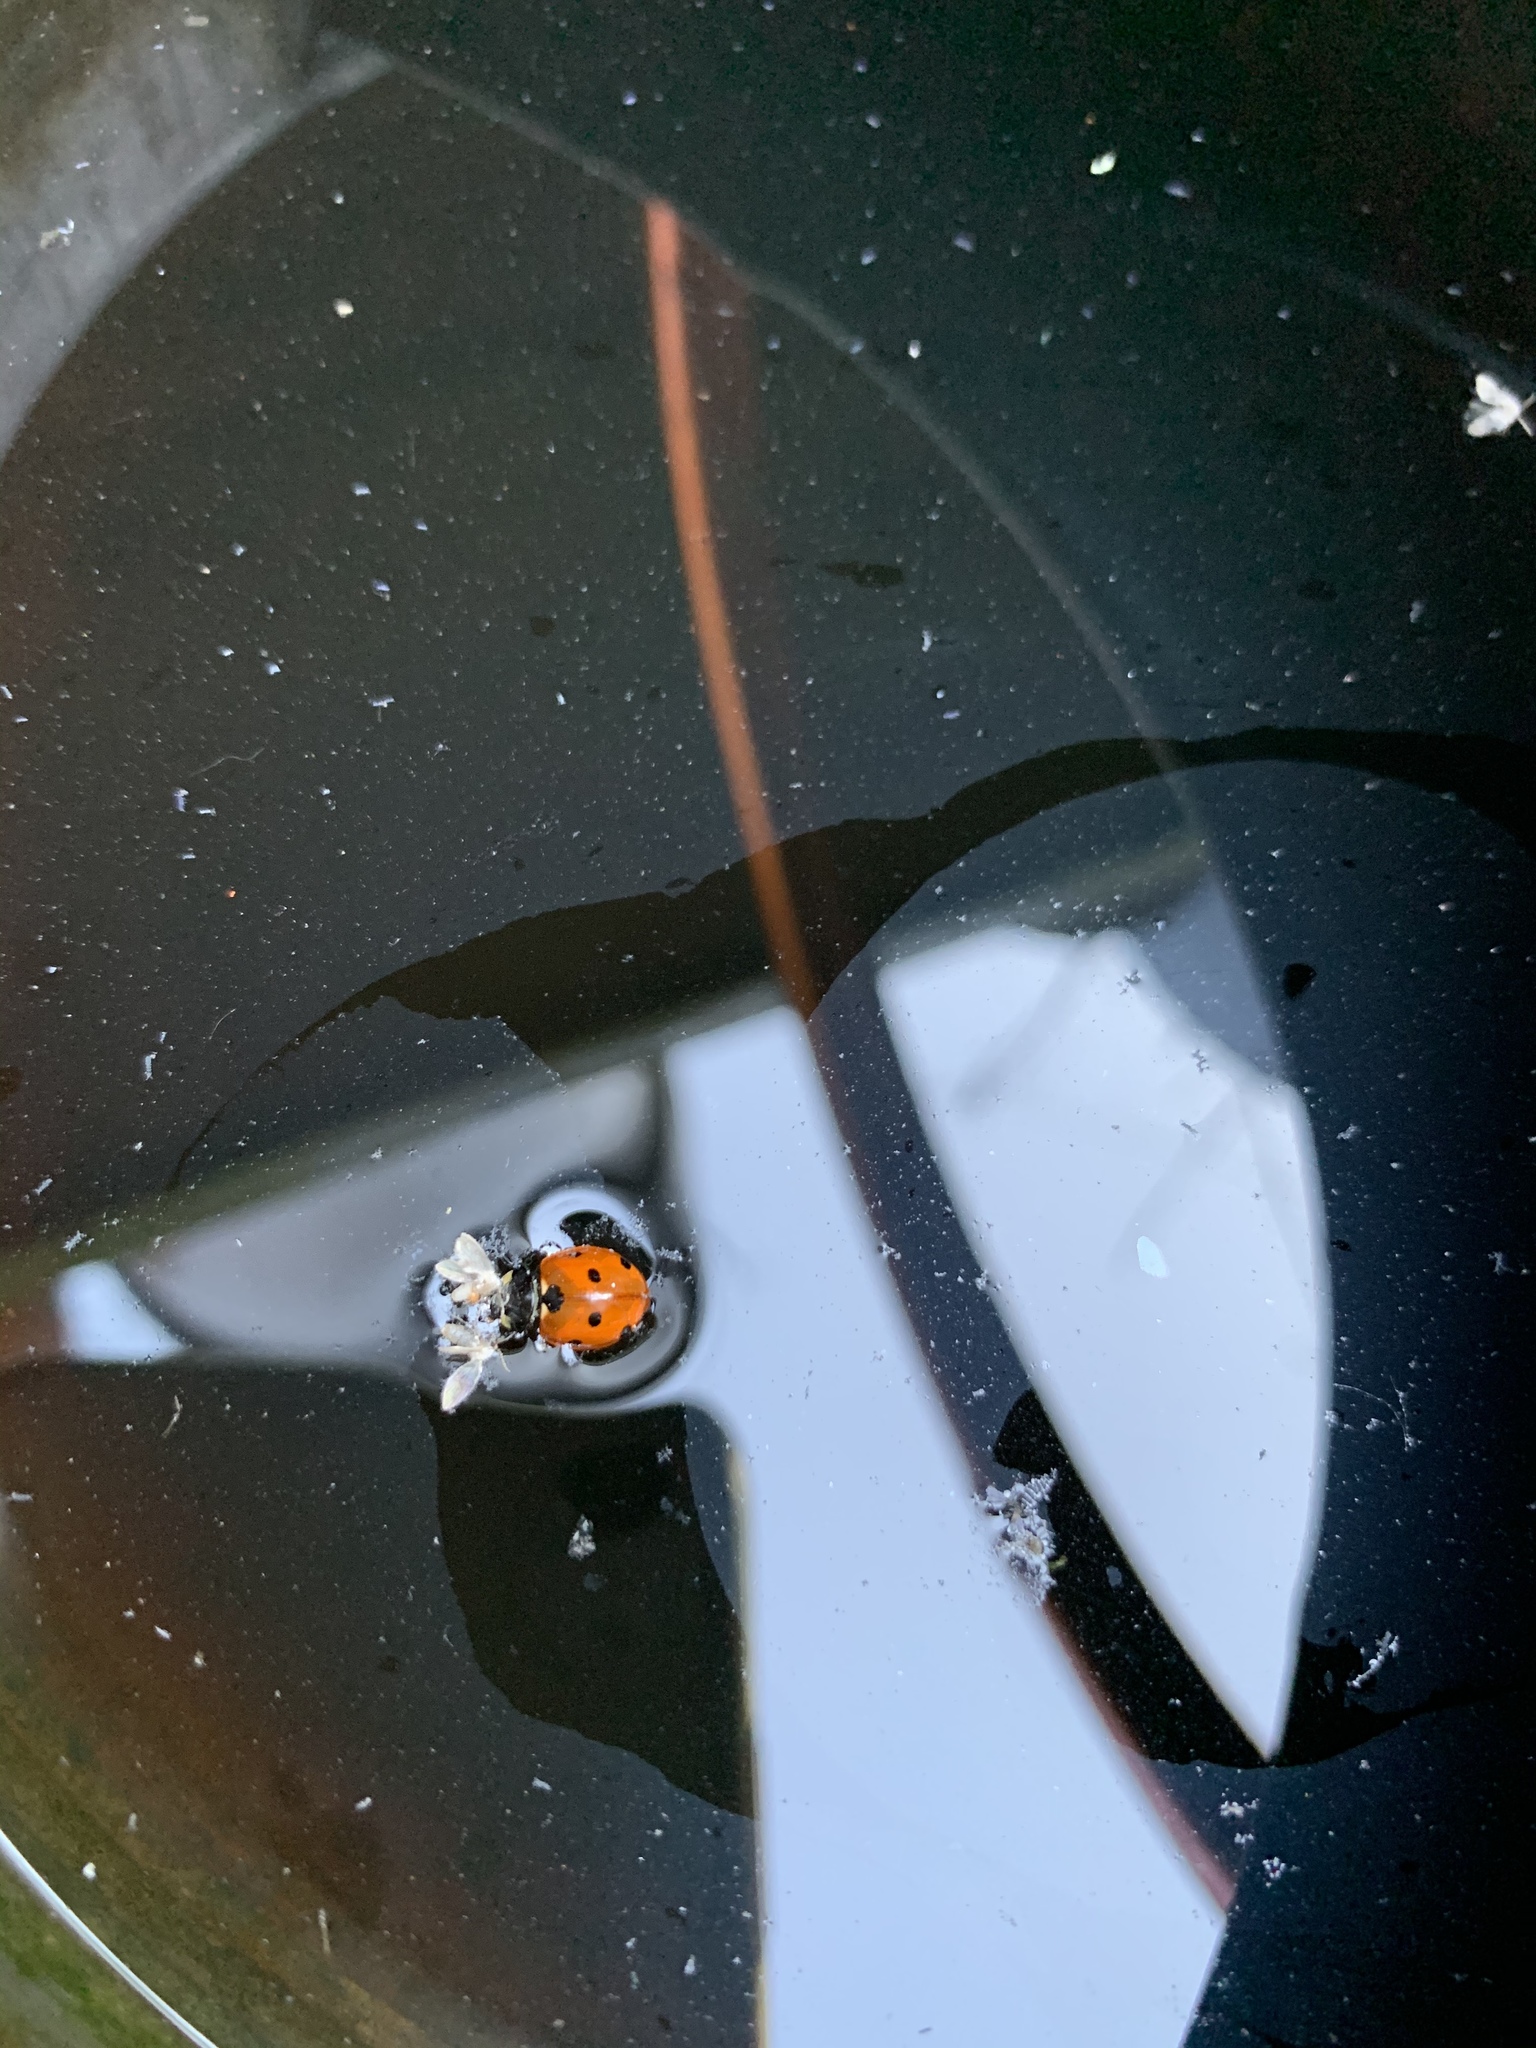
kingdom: Animalia
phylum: Arthropoda
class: Insecta
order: Coleoptera
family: Coccinellidae
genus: Coccinella
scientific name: Coccinella septempunctata
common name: Sevenspotted lady beetle
